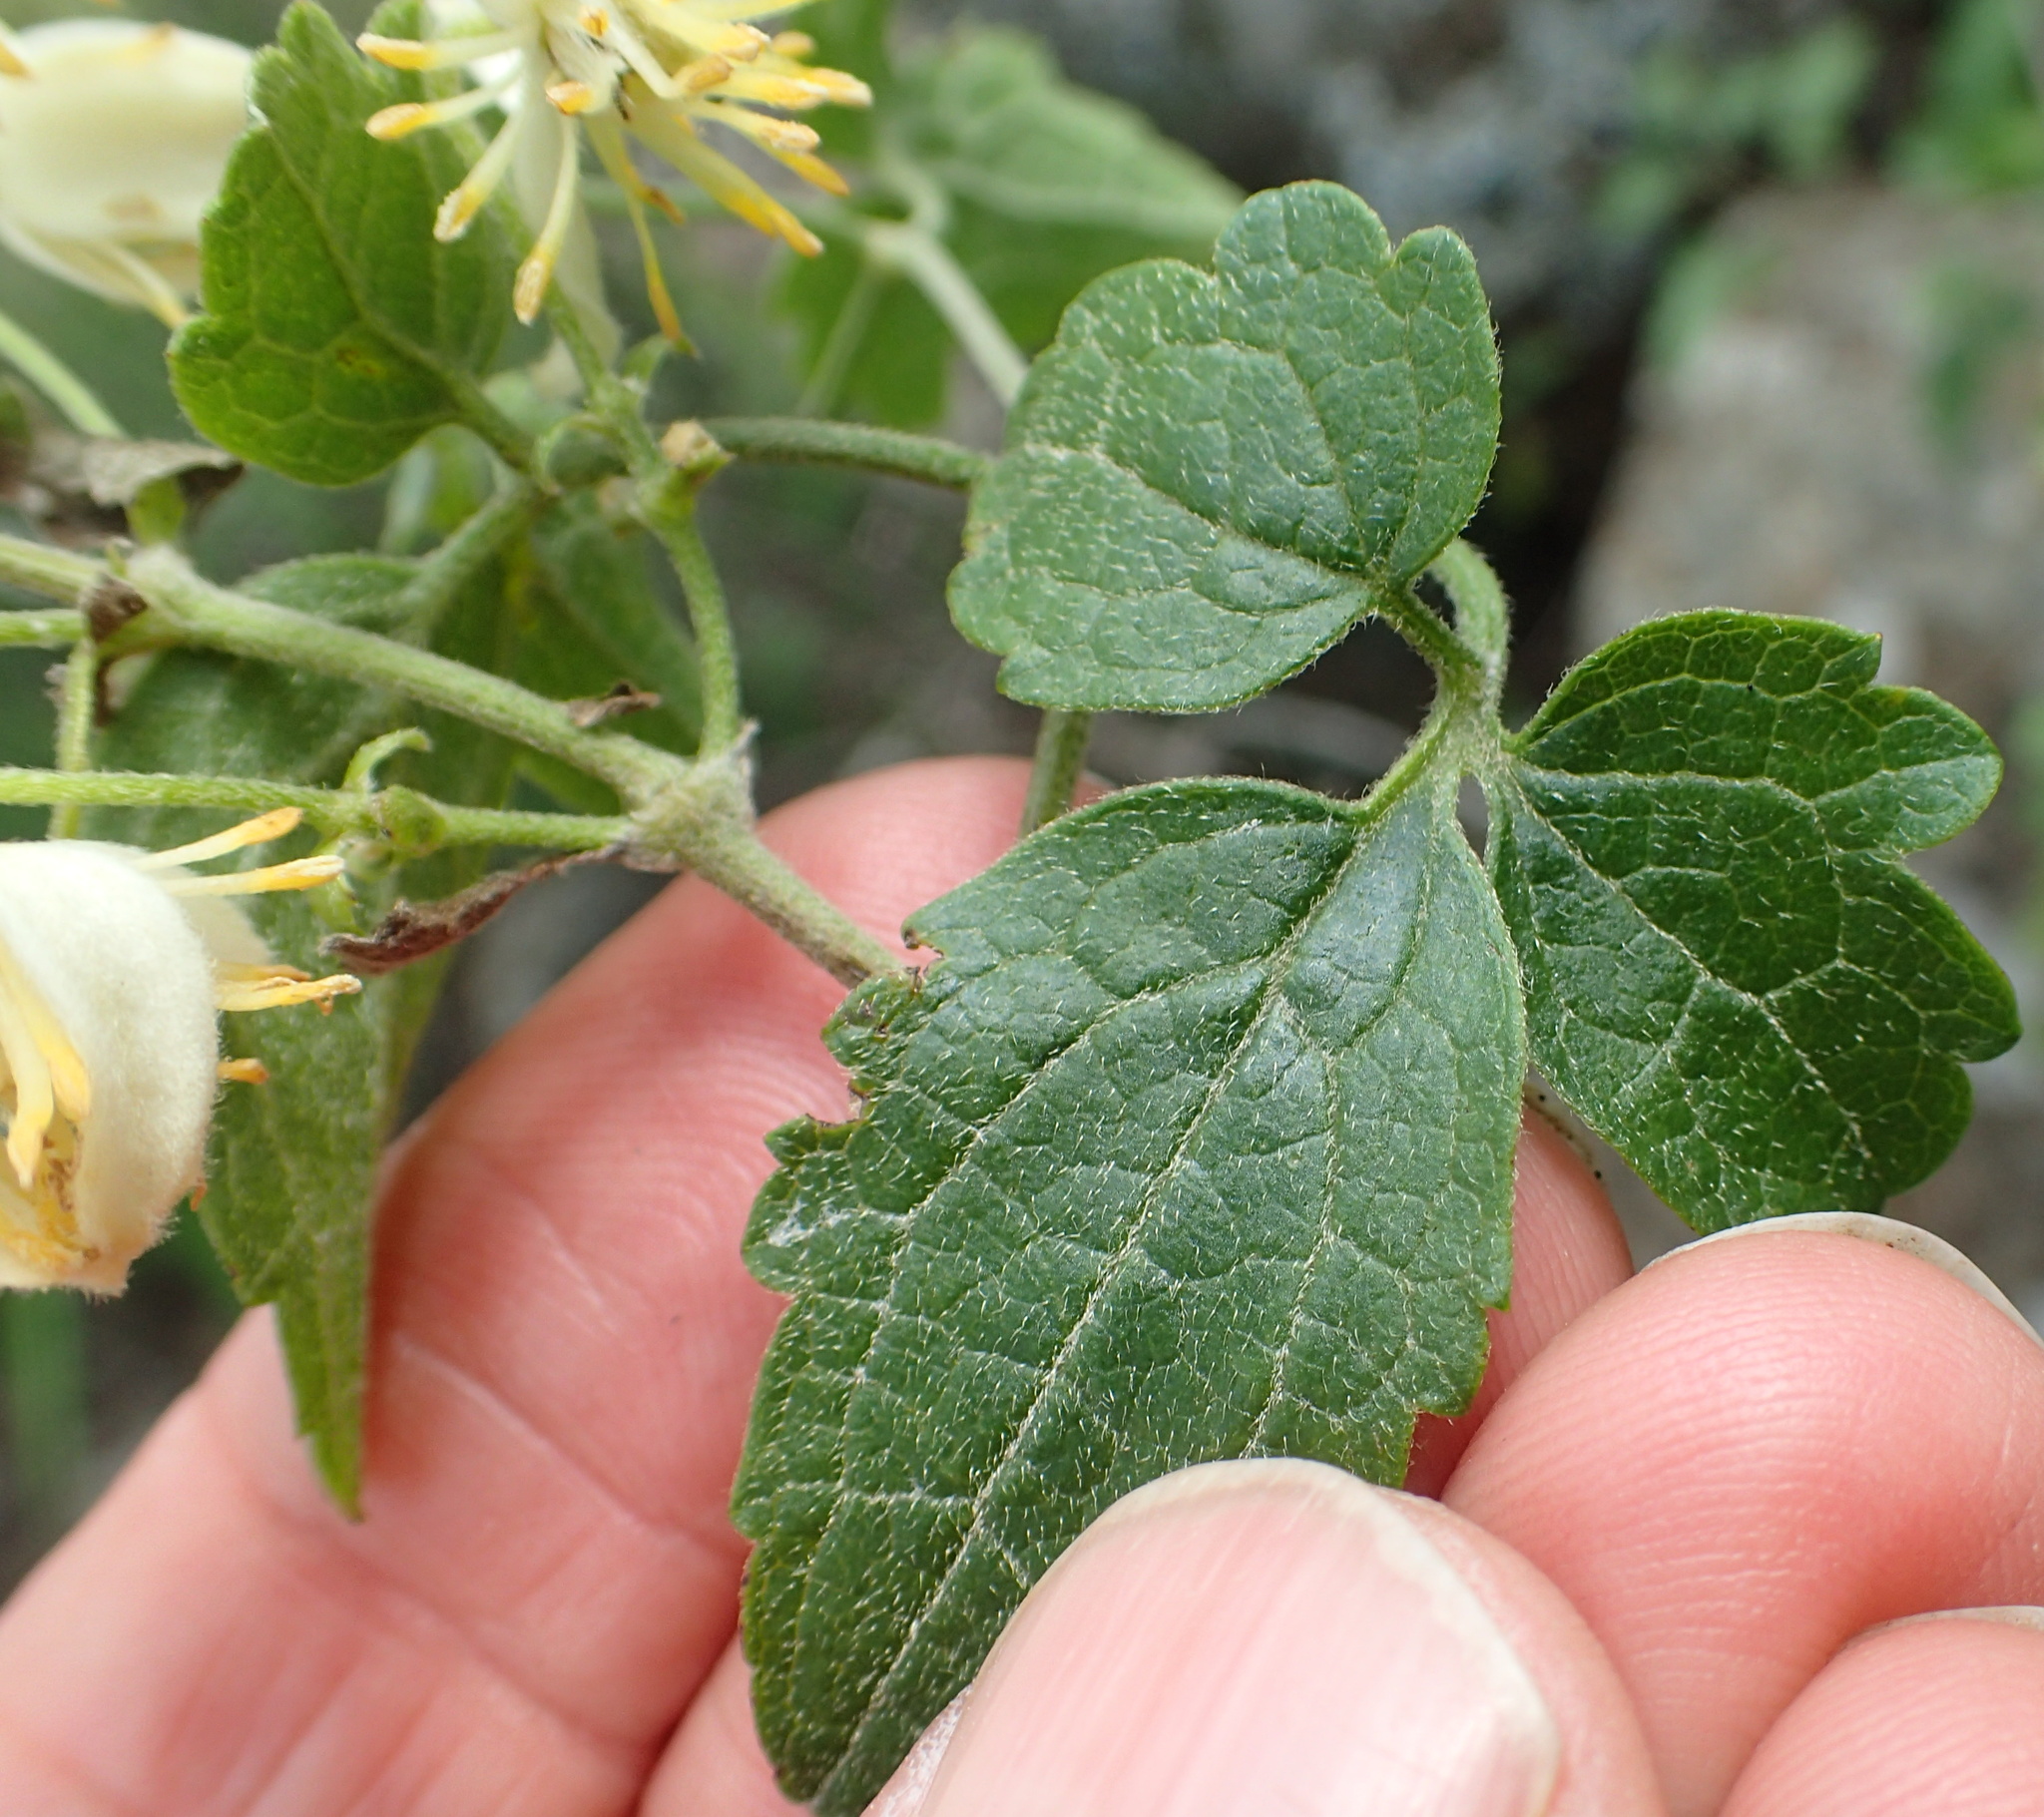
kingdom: Plantae
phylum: Tracheophyta
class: Magnoliopsida
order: Ranunculales
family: Ranunculaceae
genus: Clematis
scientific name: Clematis brachiata
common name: Traveler's-joy
